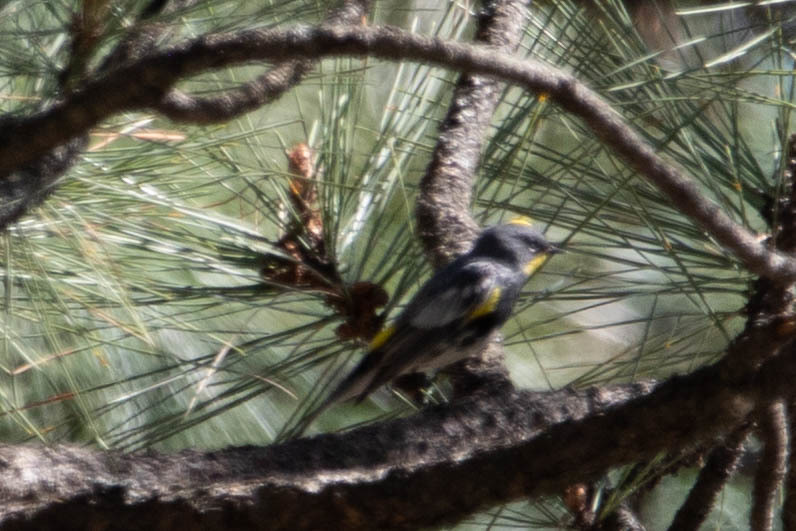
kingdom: Animalia
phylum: Chordata
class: Aves
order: Passeriformes
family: Parulidae
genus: Setophaga
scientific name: Setophaga auduboni
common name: Audubon's warbler
